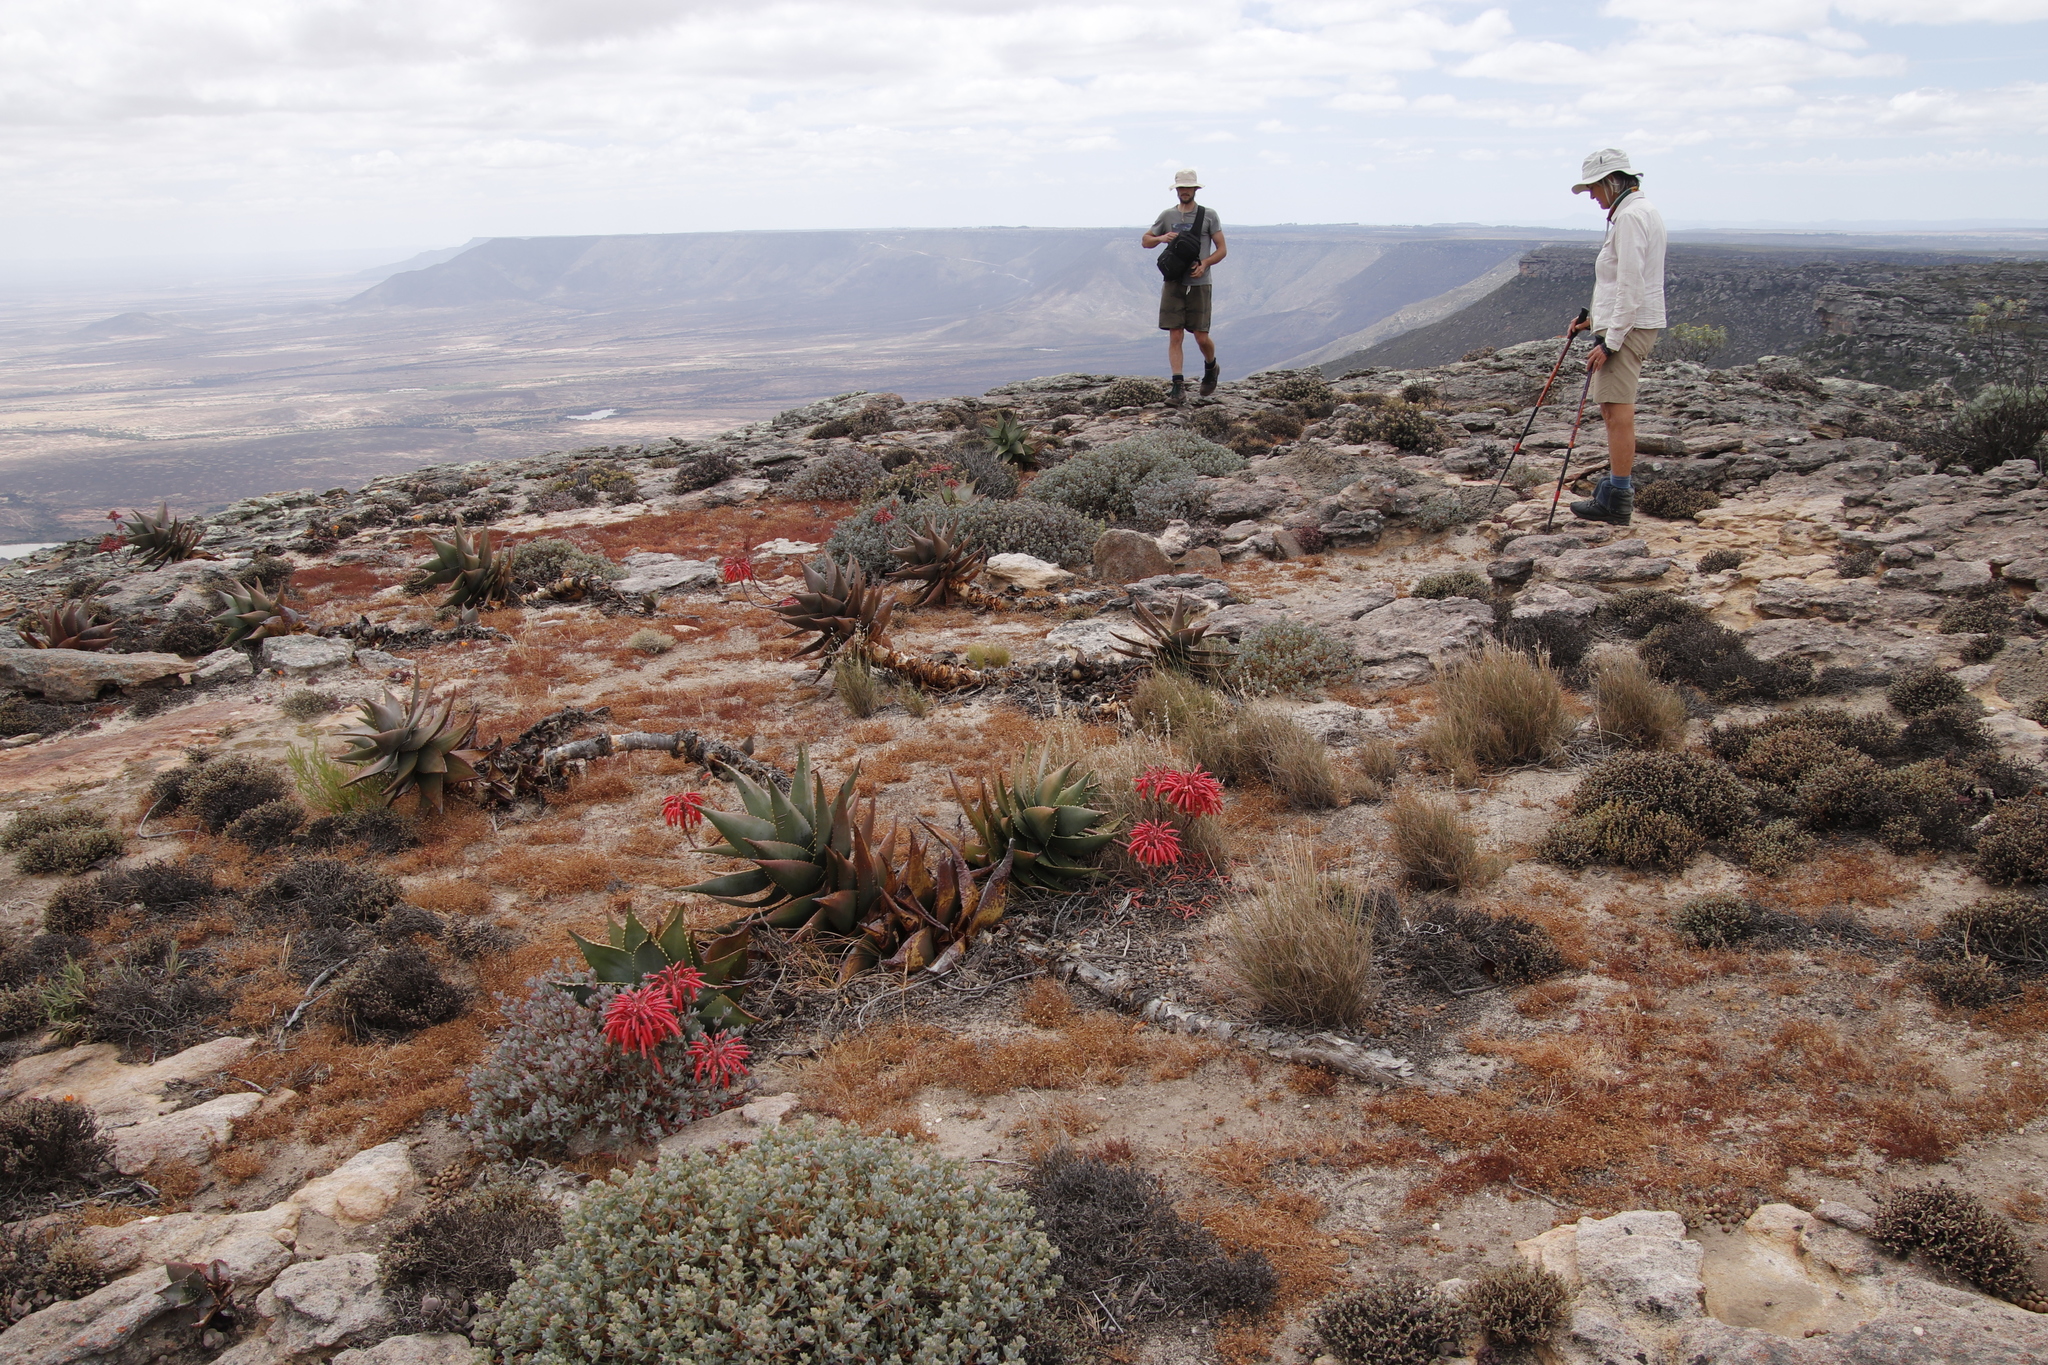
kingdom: Plantae
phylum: Tracheophyta
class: Liliopsida
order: Asparagales
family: Asphodelaceae
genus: Aloe
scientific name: Aloe perfoliata
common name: Mitra aloe
